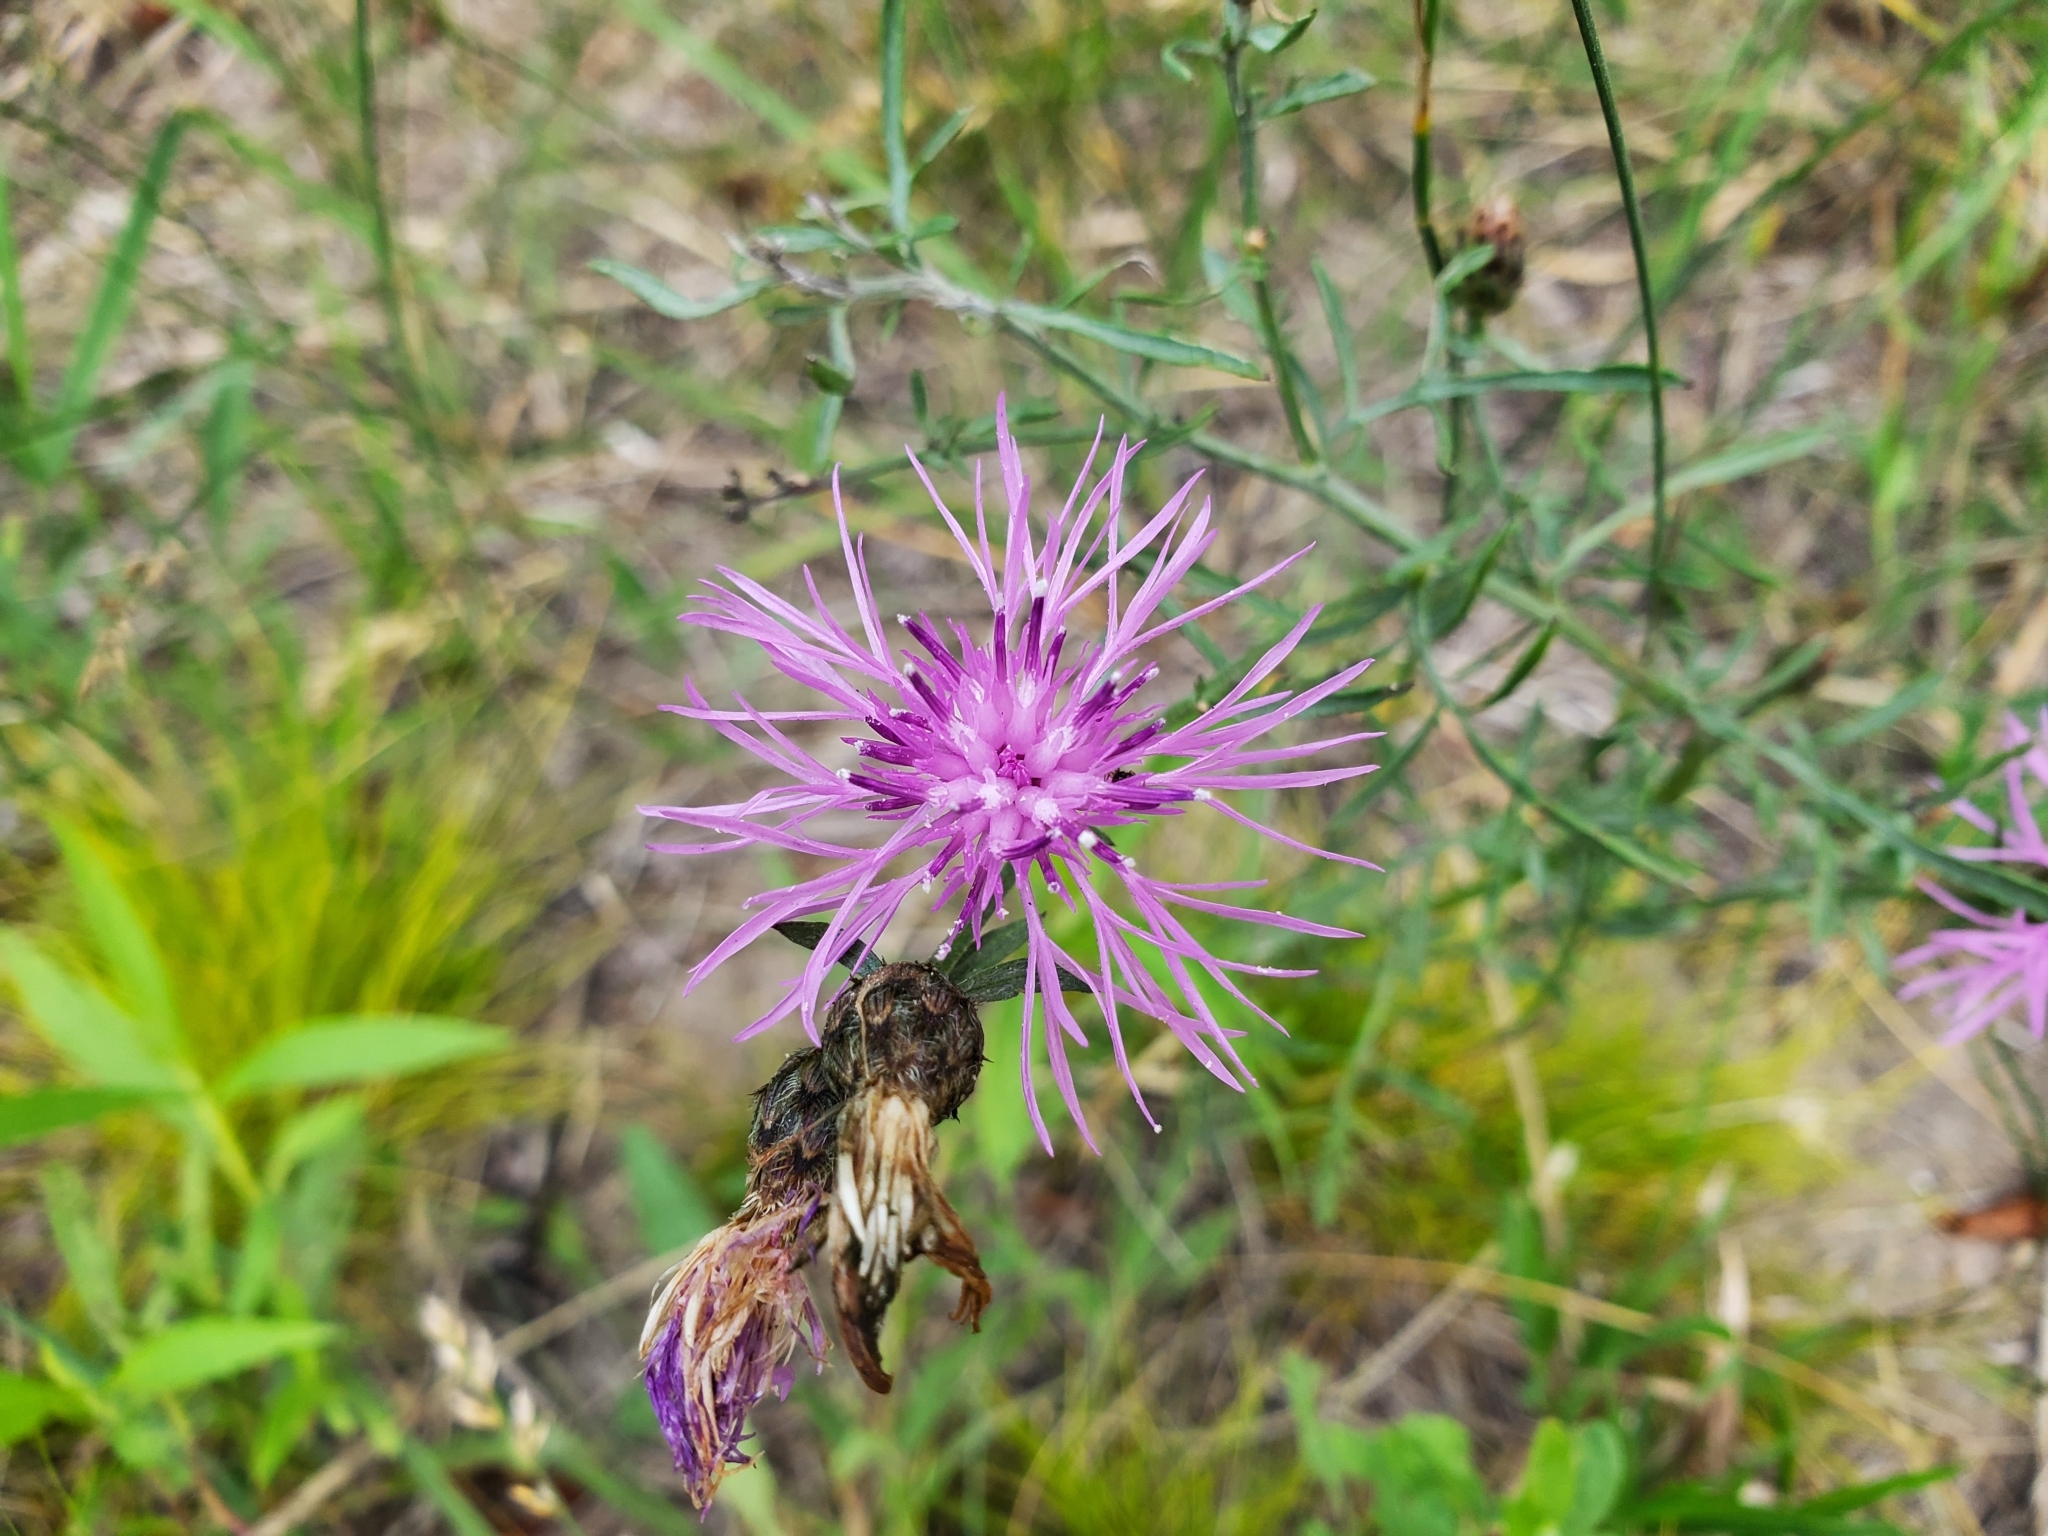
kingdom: Plantae
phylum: Tracheophyta
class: Magnoliopsida
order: Asterales
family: Asteraceae
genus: Centaurea
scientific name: Centaurea stoebe
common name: Spotted knapweed
